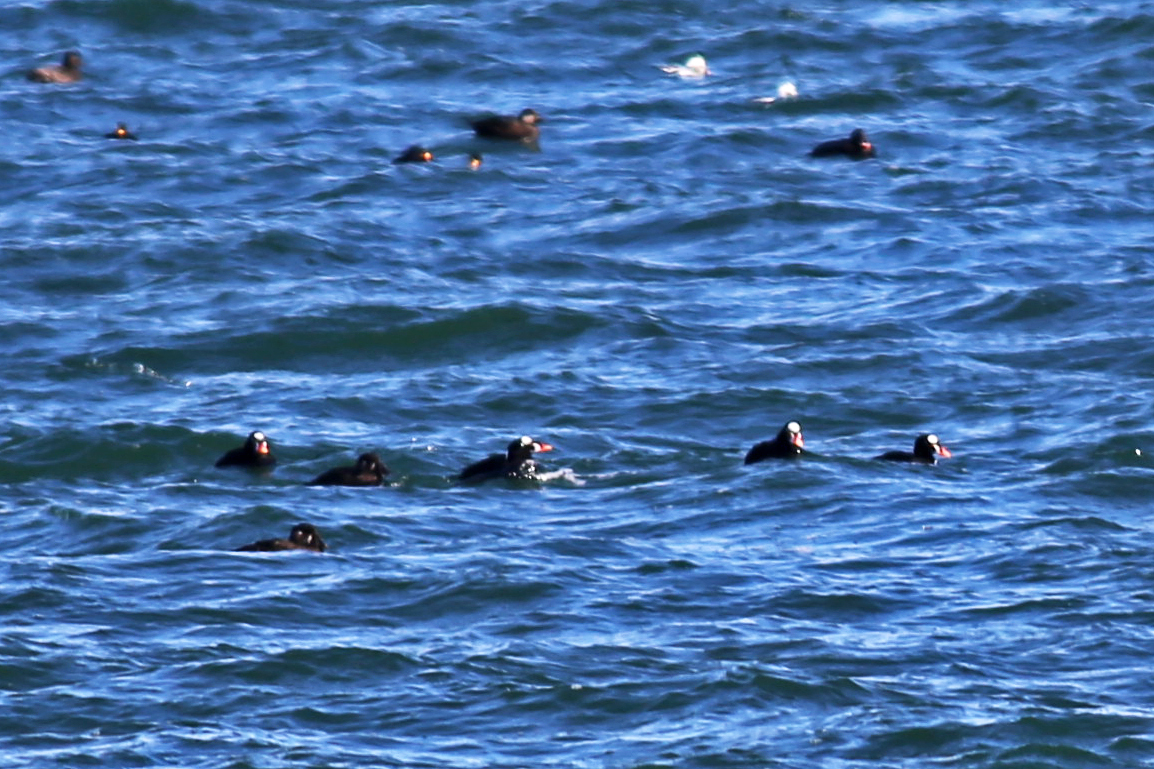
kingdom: Animalia
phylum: Chordata
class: Aves
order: Anseriformes
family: Anatidae
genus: Melanitta
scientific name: Melanitta perspicillata
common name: Surf scoter
